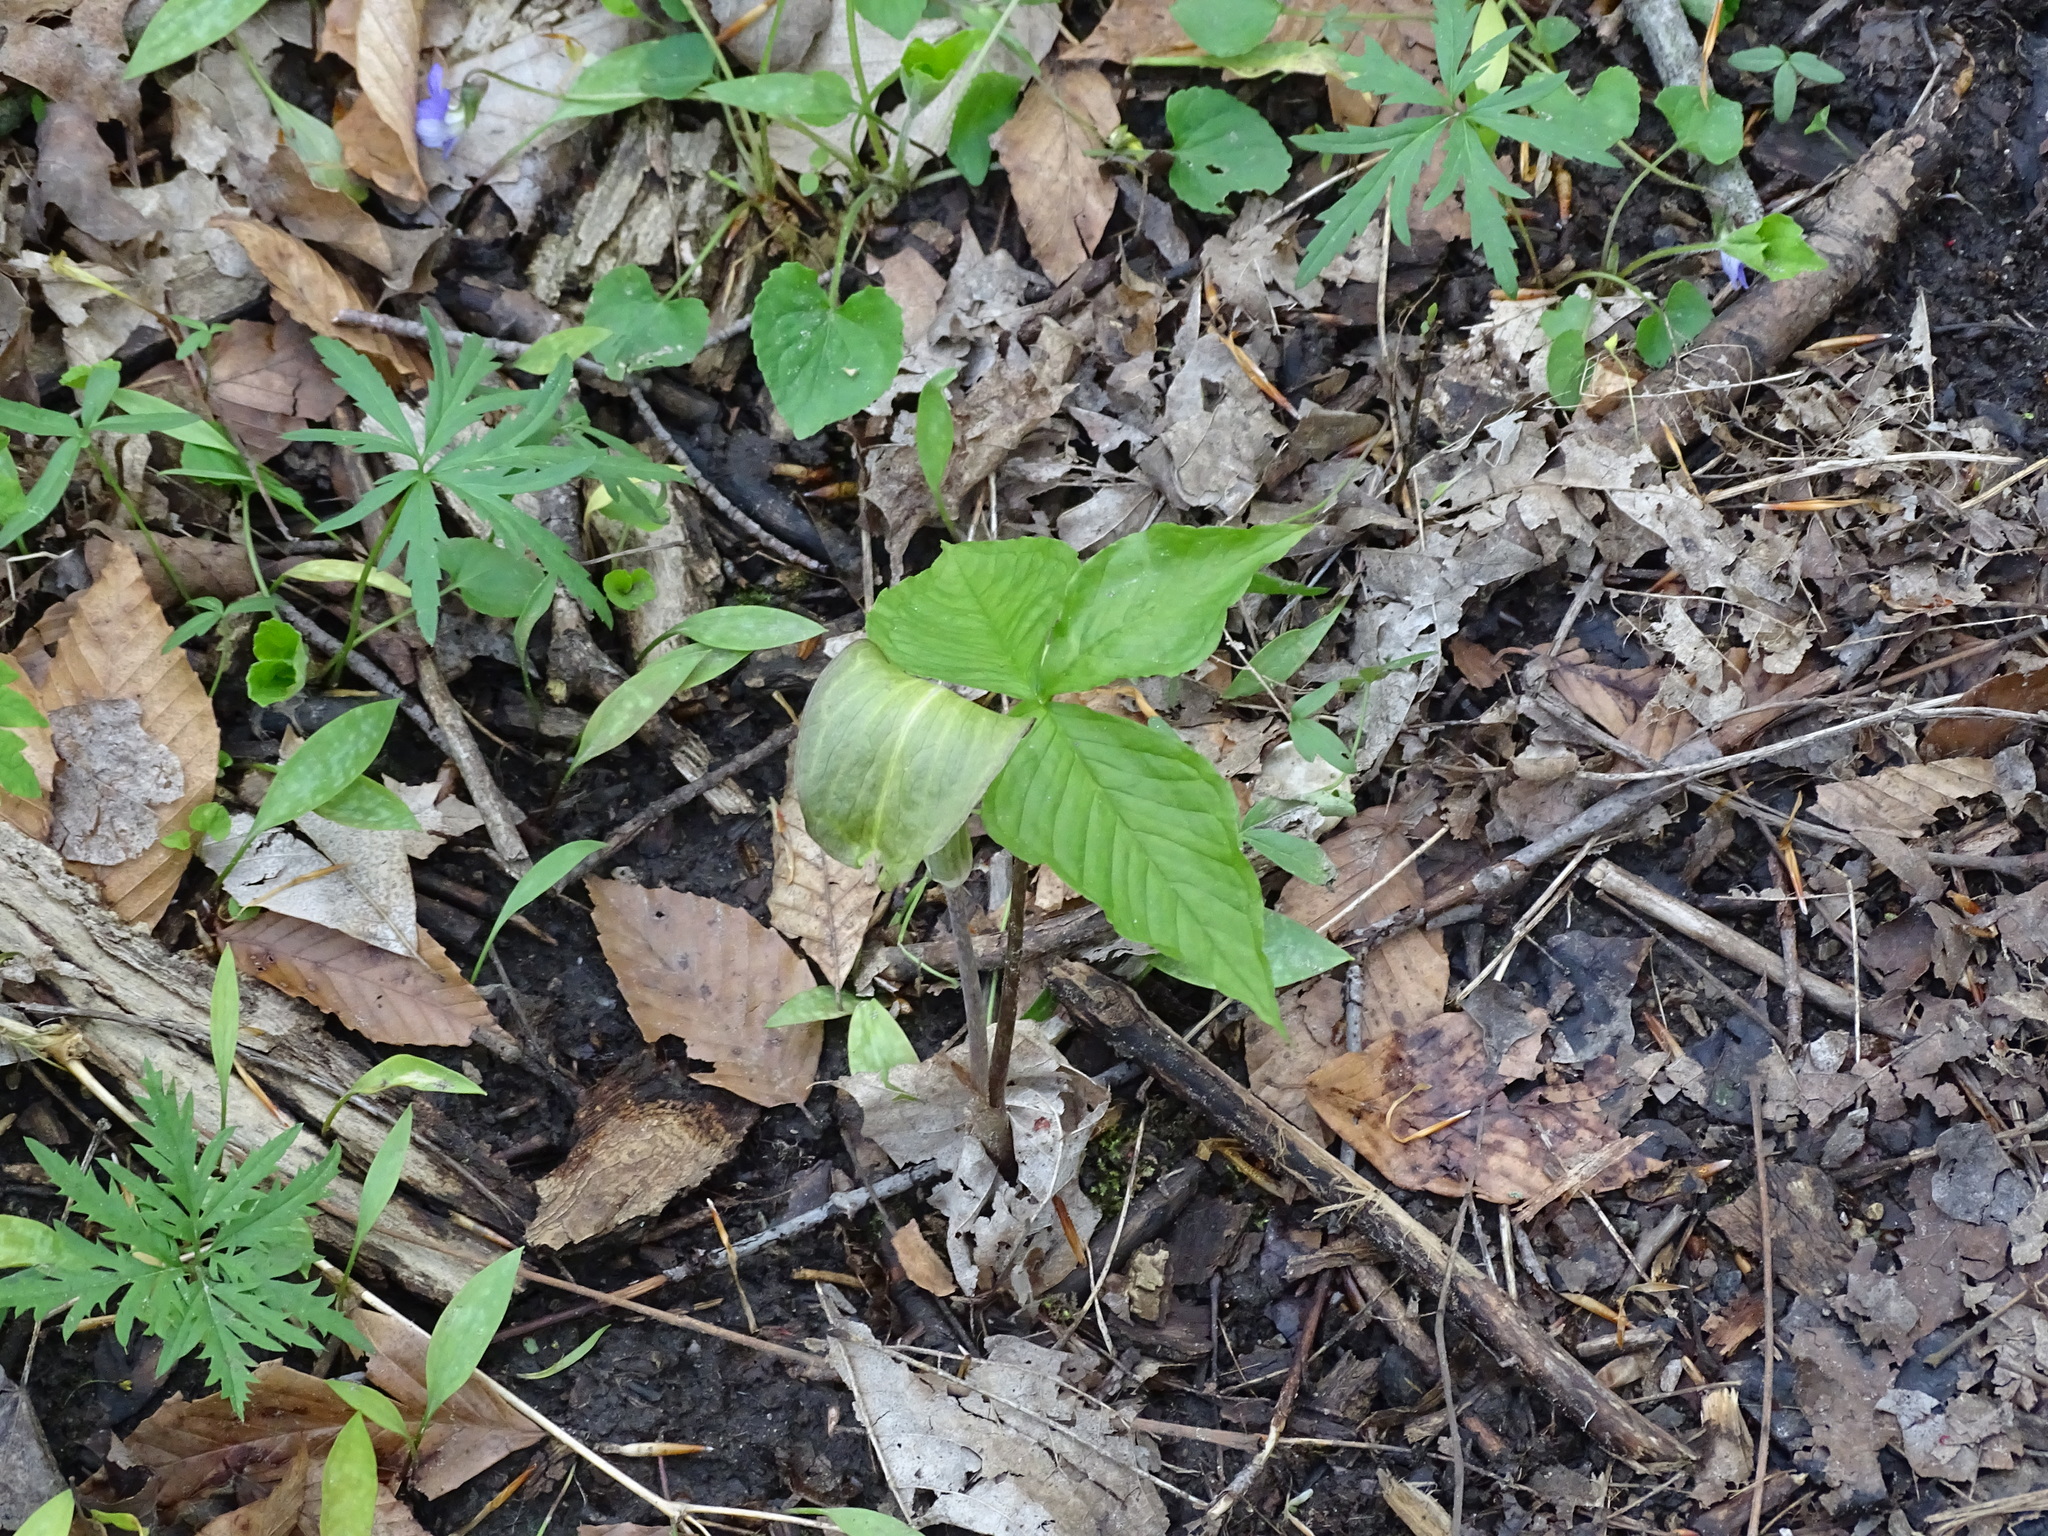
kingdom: Plantae
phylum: Tracheophyta
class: Liliopsida
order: Alismatales
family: Araceae
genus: Arisaema
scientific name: Arisaema triphyllum
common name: Jack-in-the-pulpit
